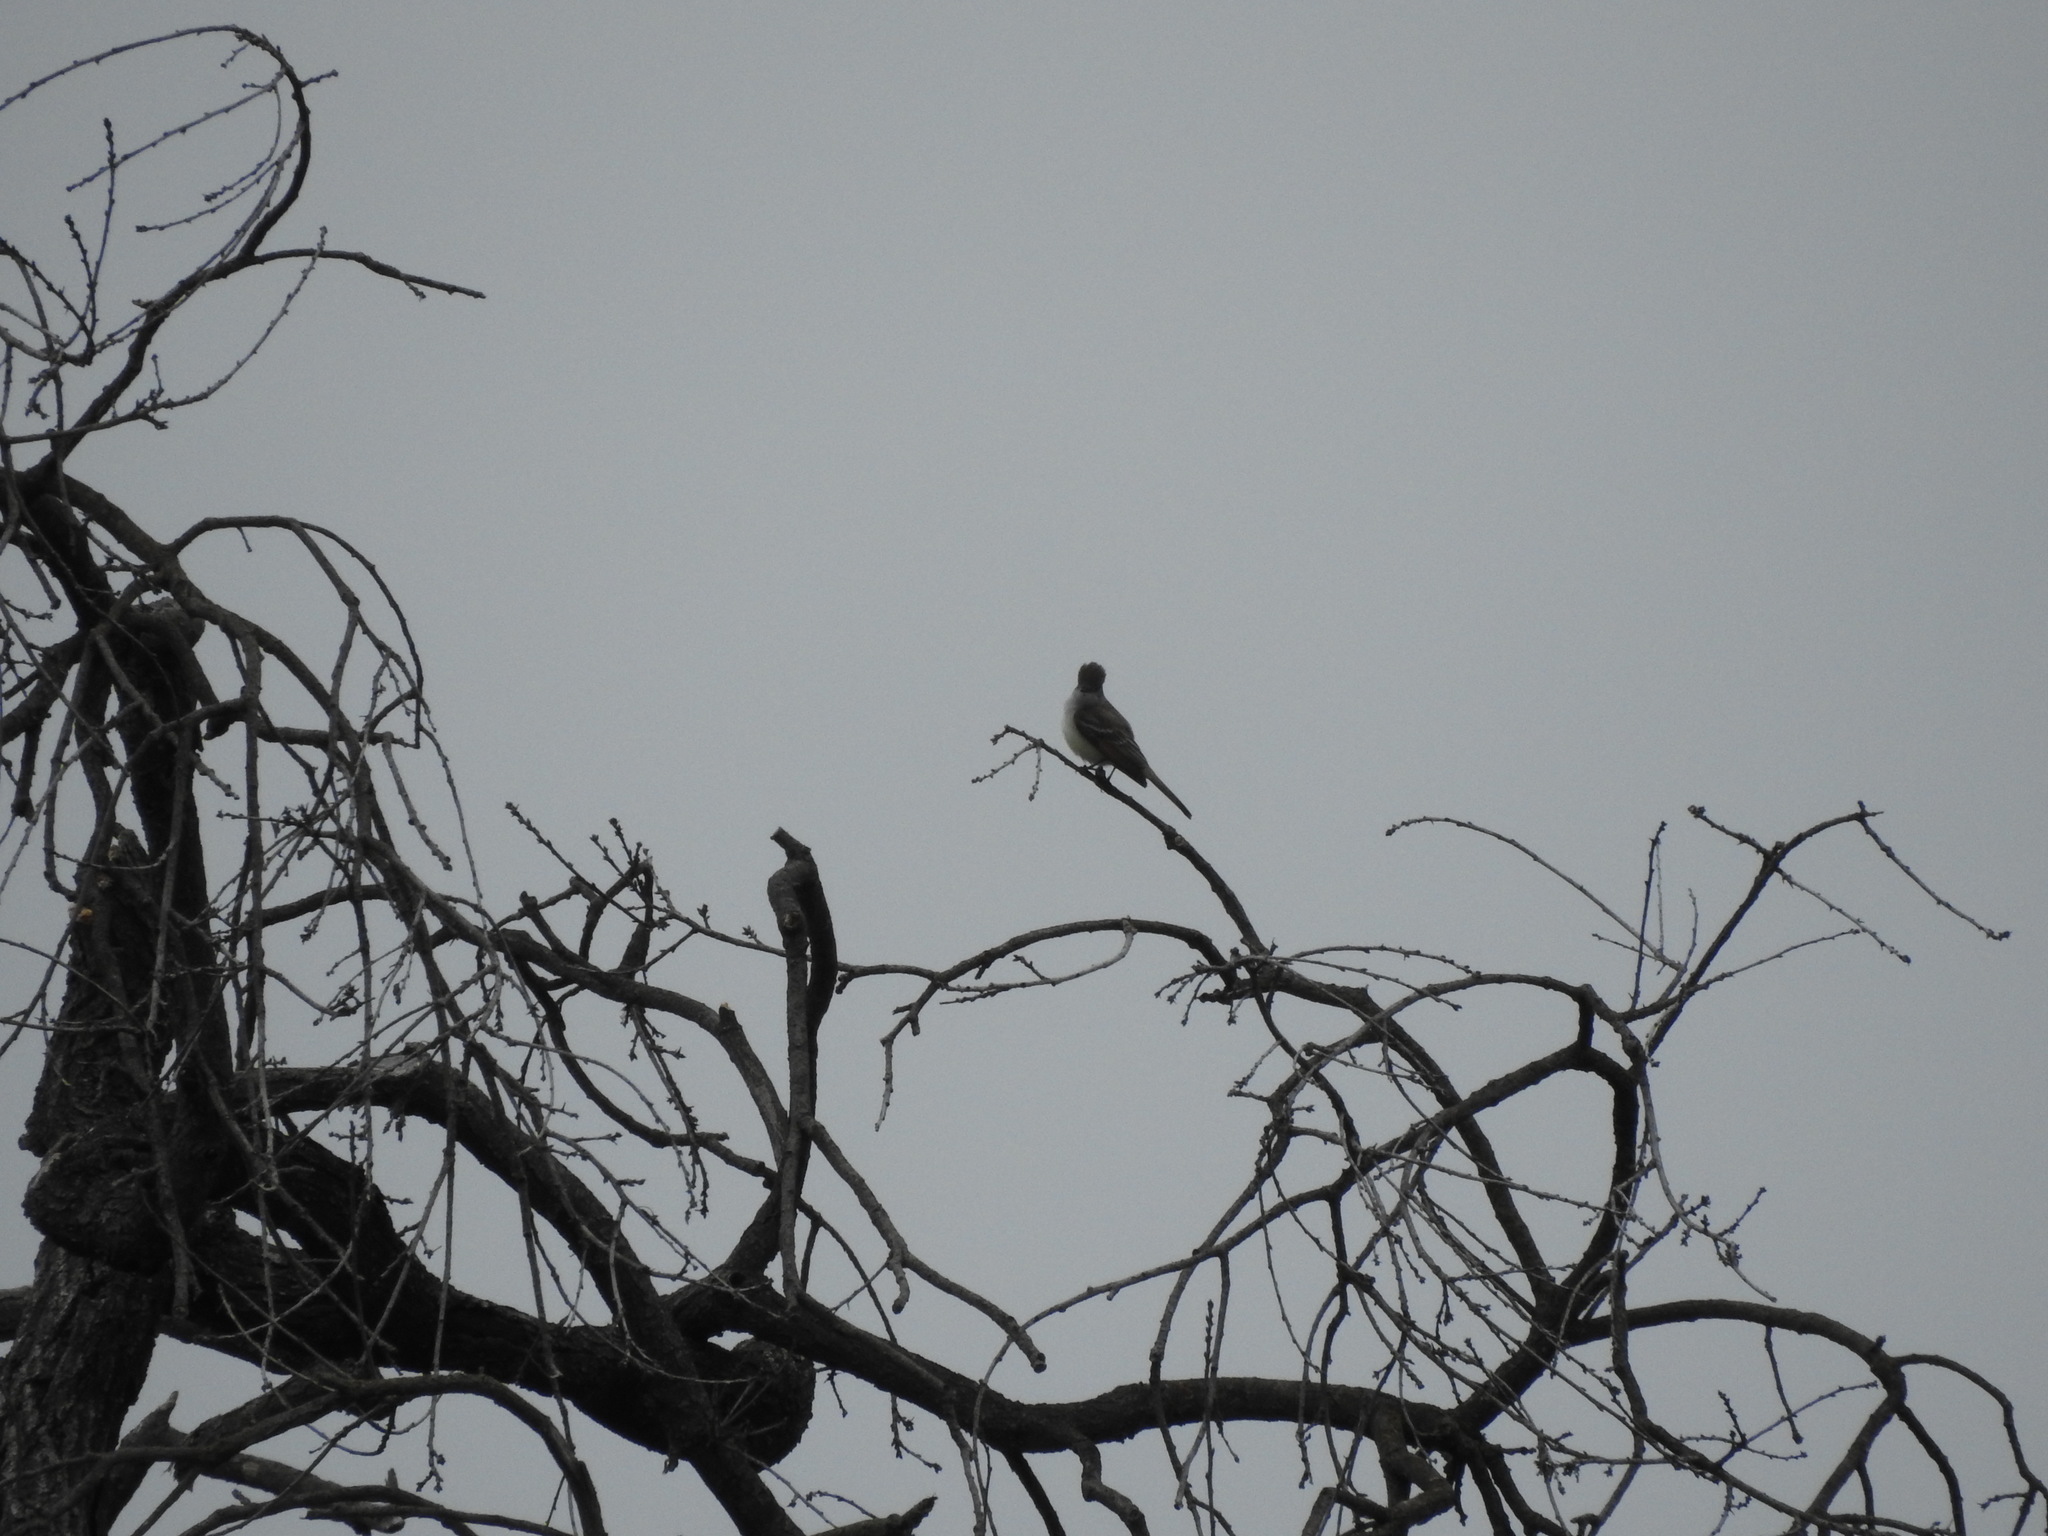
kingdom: Animalia
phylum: Chordata
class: Aves
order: Passeriformes
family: Tyrannidae
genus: Myiarchus
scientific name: Myiarchus cinerascens
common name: Ash-throated flycatcher
